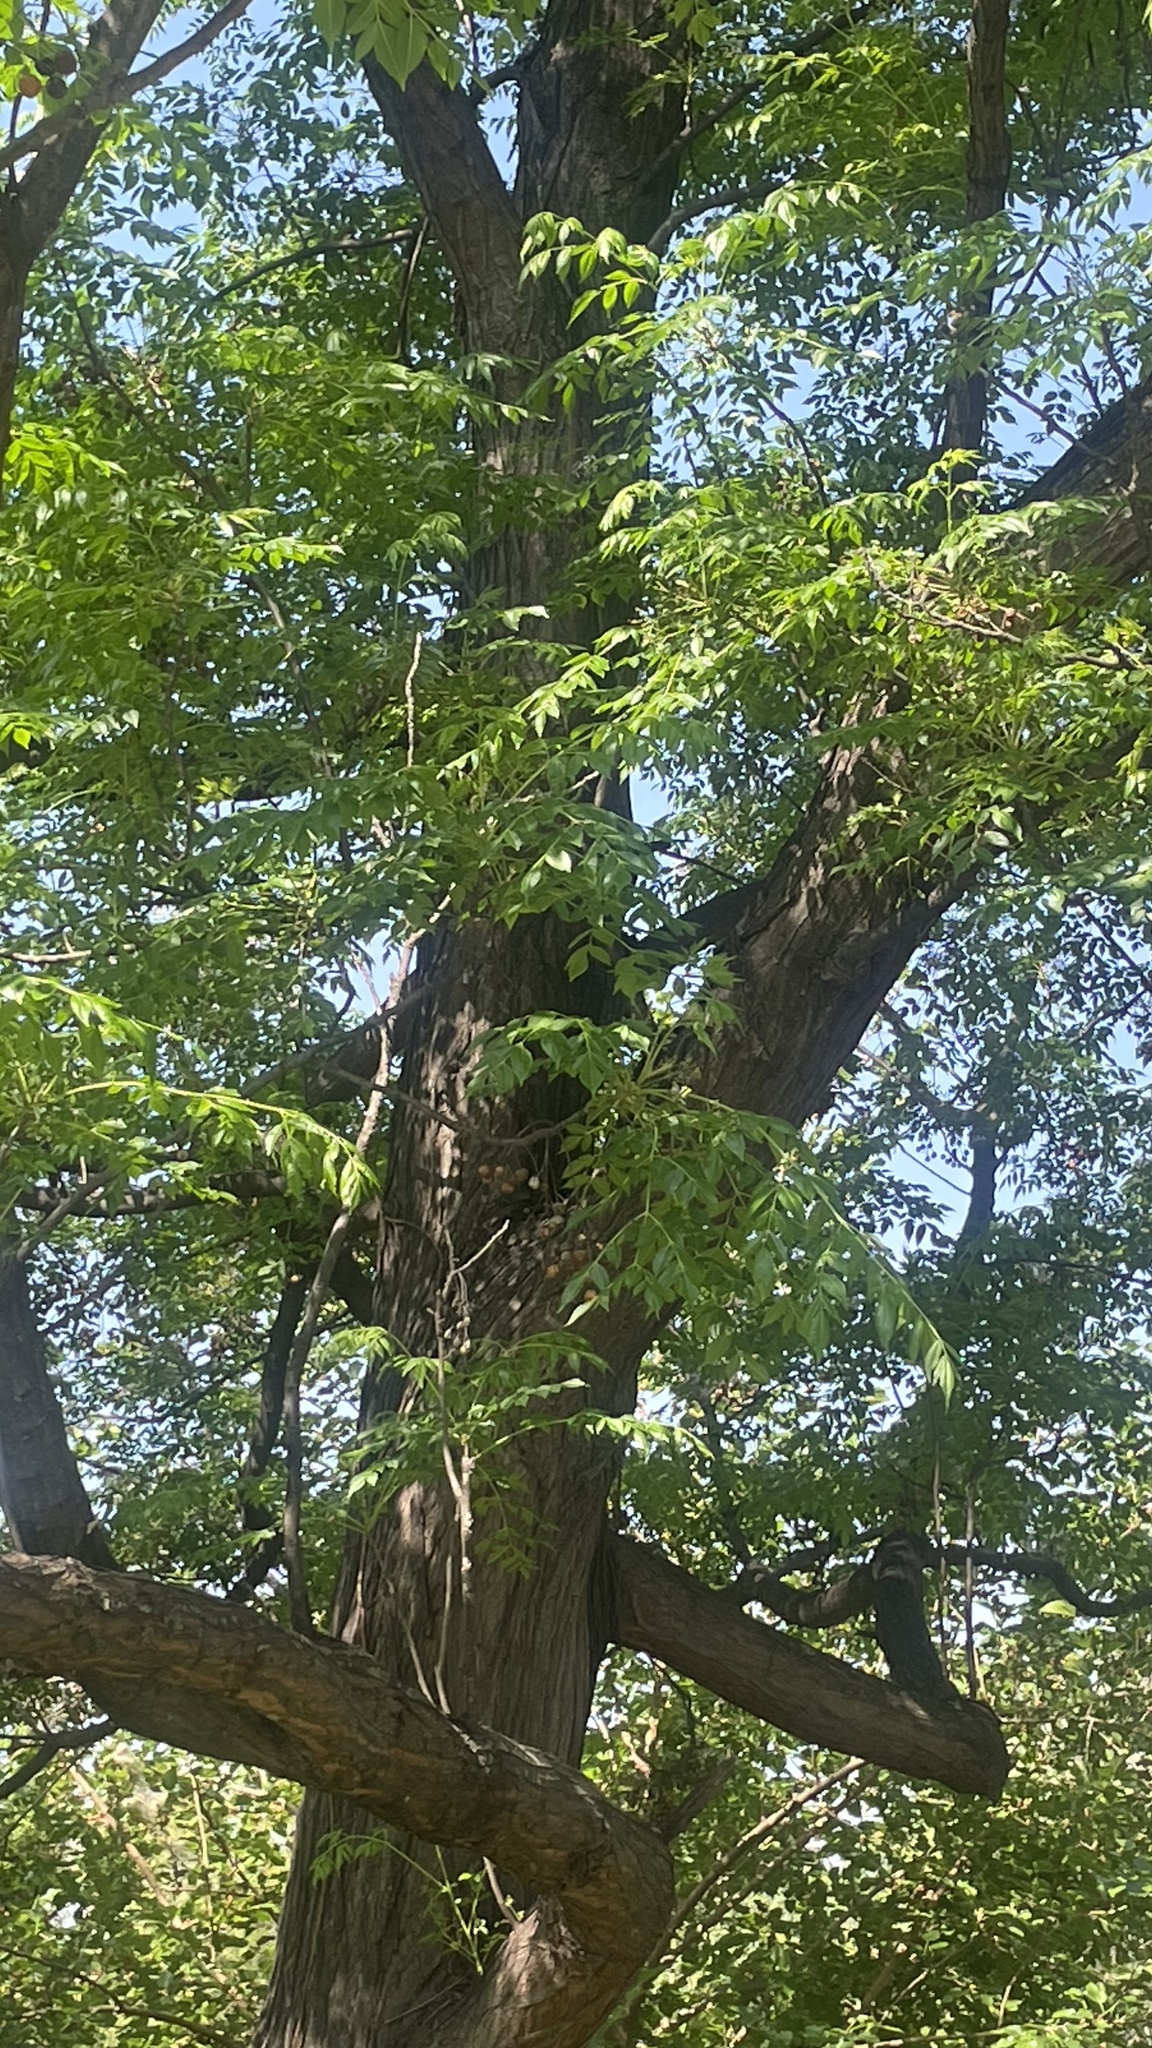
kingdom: Plantae
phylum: Tracheophyta
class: Magnoliopsida
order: Sapindales
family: Meliaceae
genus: Melia
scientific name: Melia azedarach
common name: Chinaberrytree
